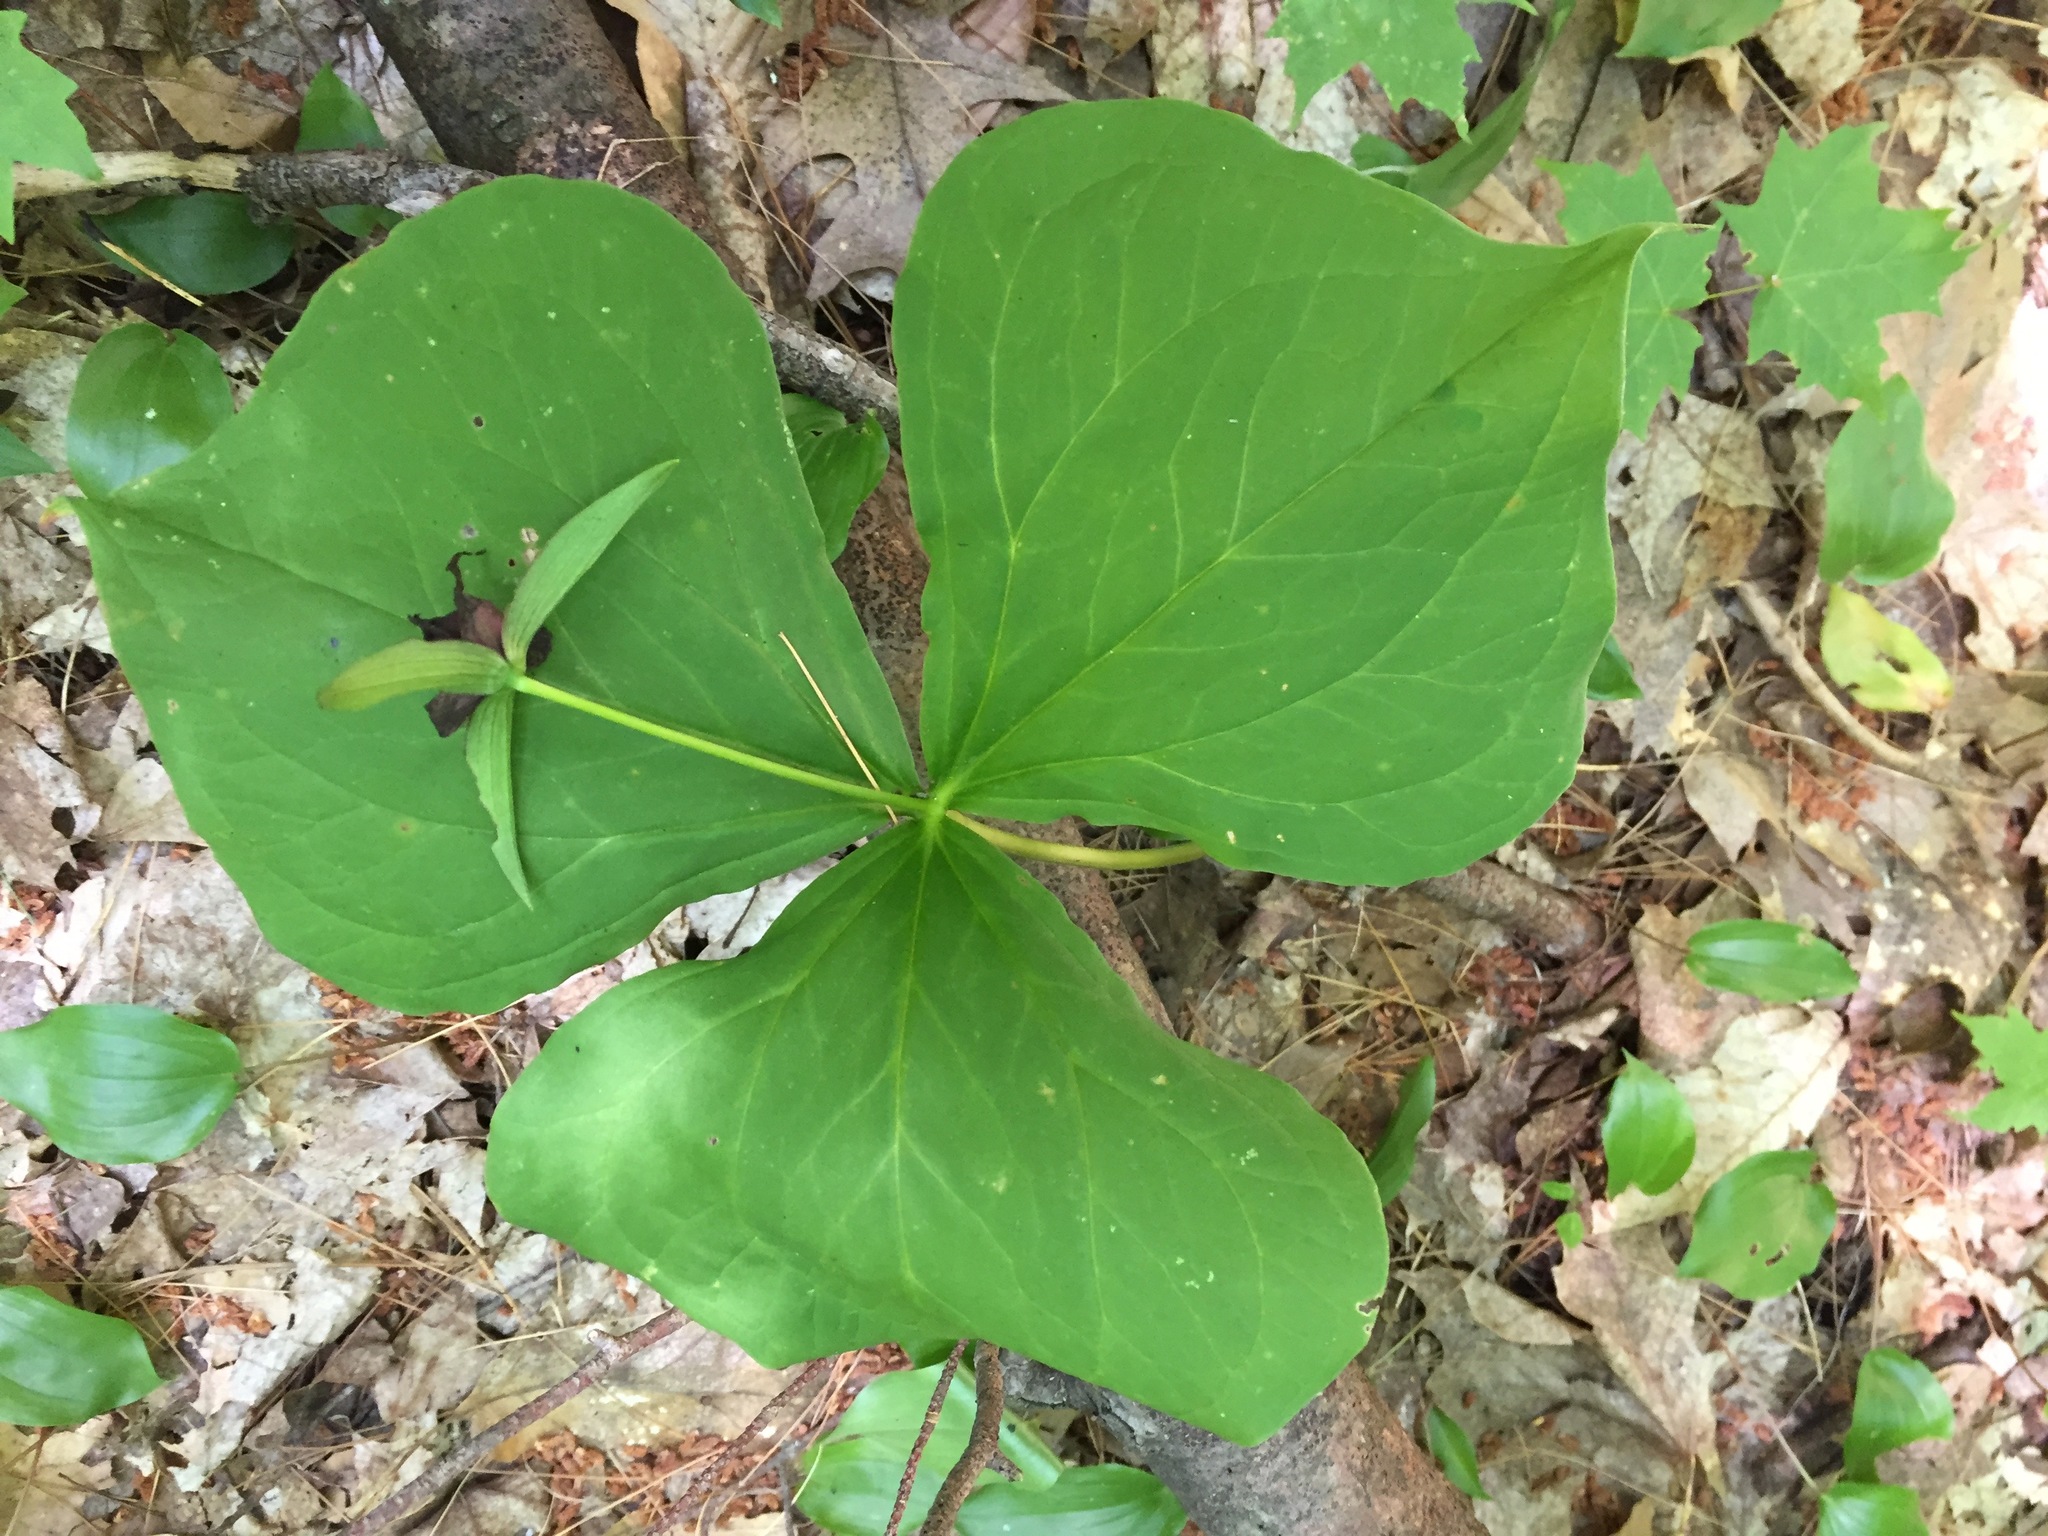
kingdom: Plantae
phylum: Tracheophyta
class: Liliopsida
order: Liliales
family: Melanthiaceae
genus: Trillium
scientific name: Trillium erectum
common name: Purple trillium
